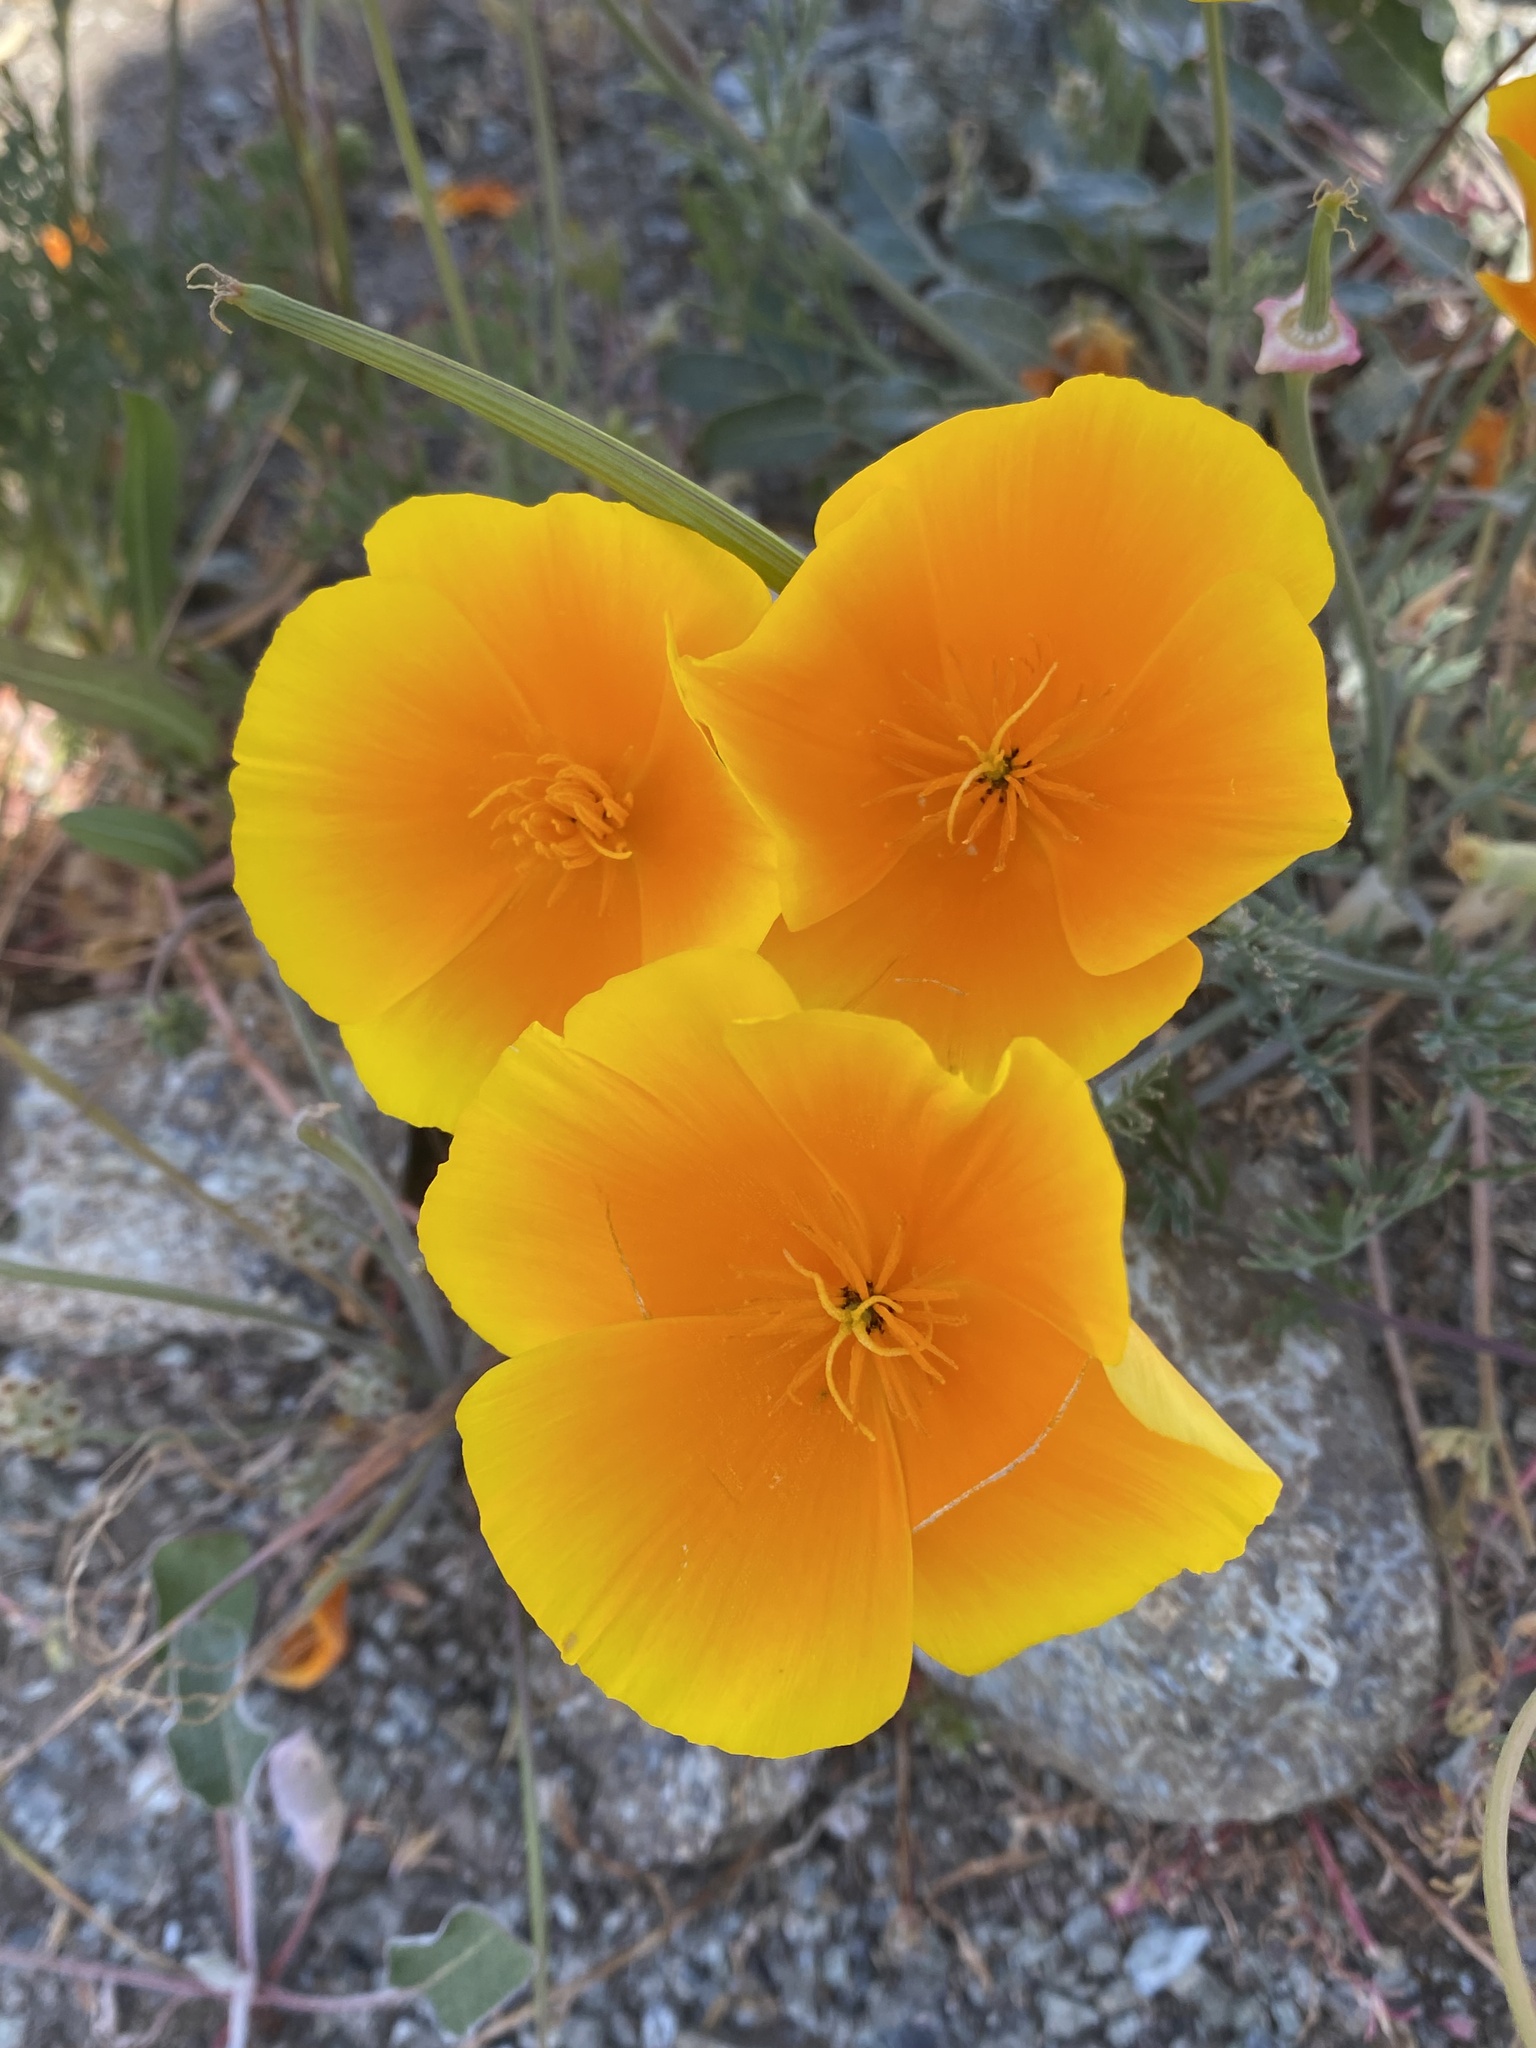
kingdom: Plantae
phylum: Tracheophyta
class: Magnoliopsida
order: Ranunculales
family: Papaveraceae
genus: Eschscholzia
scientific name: Eschscholzia californica
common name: California poppy
